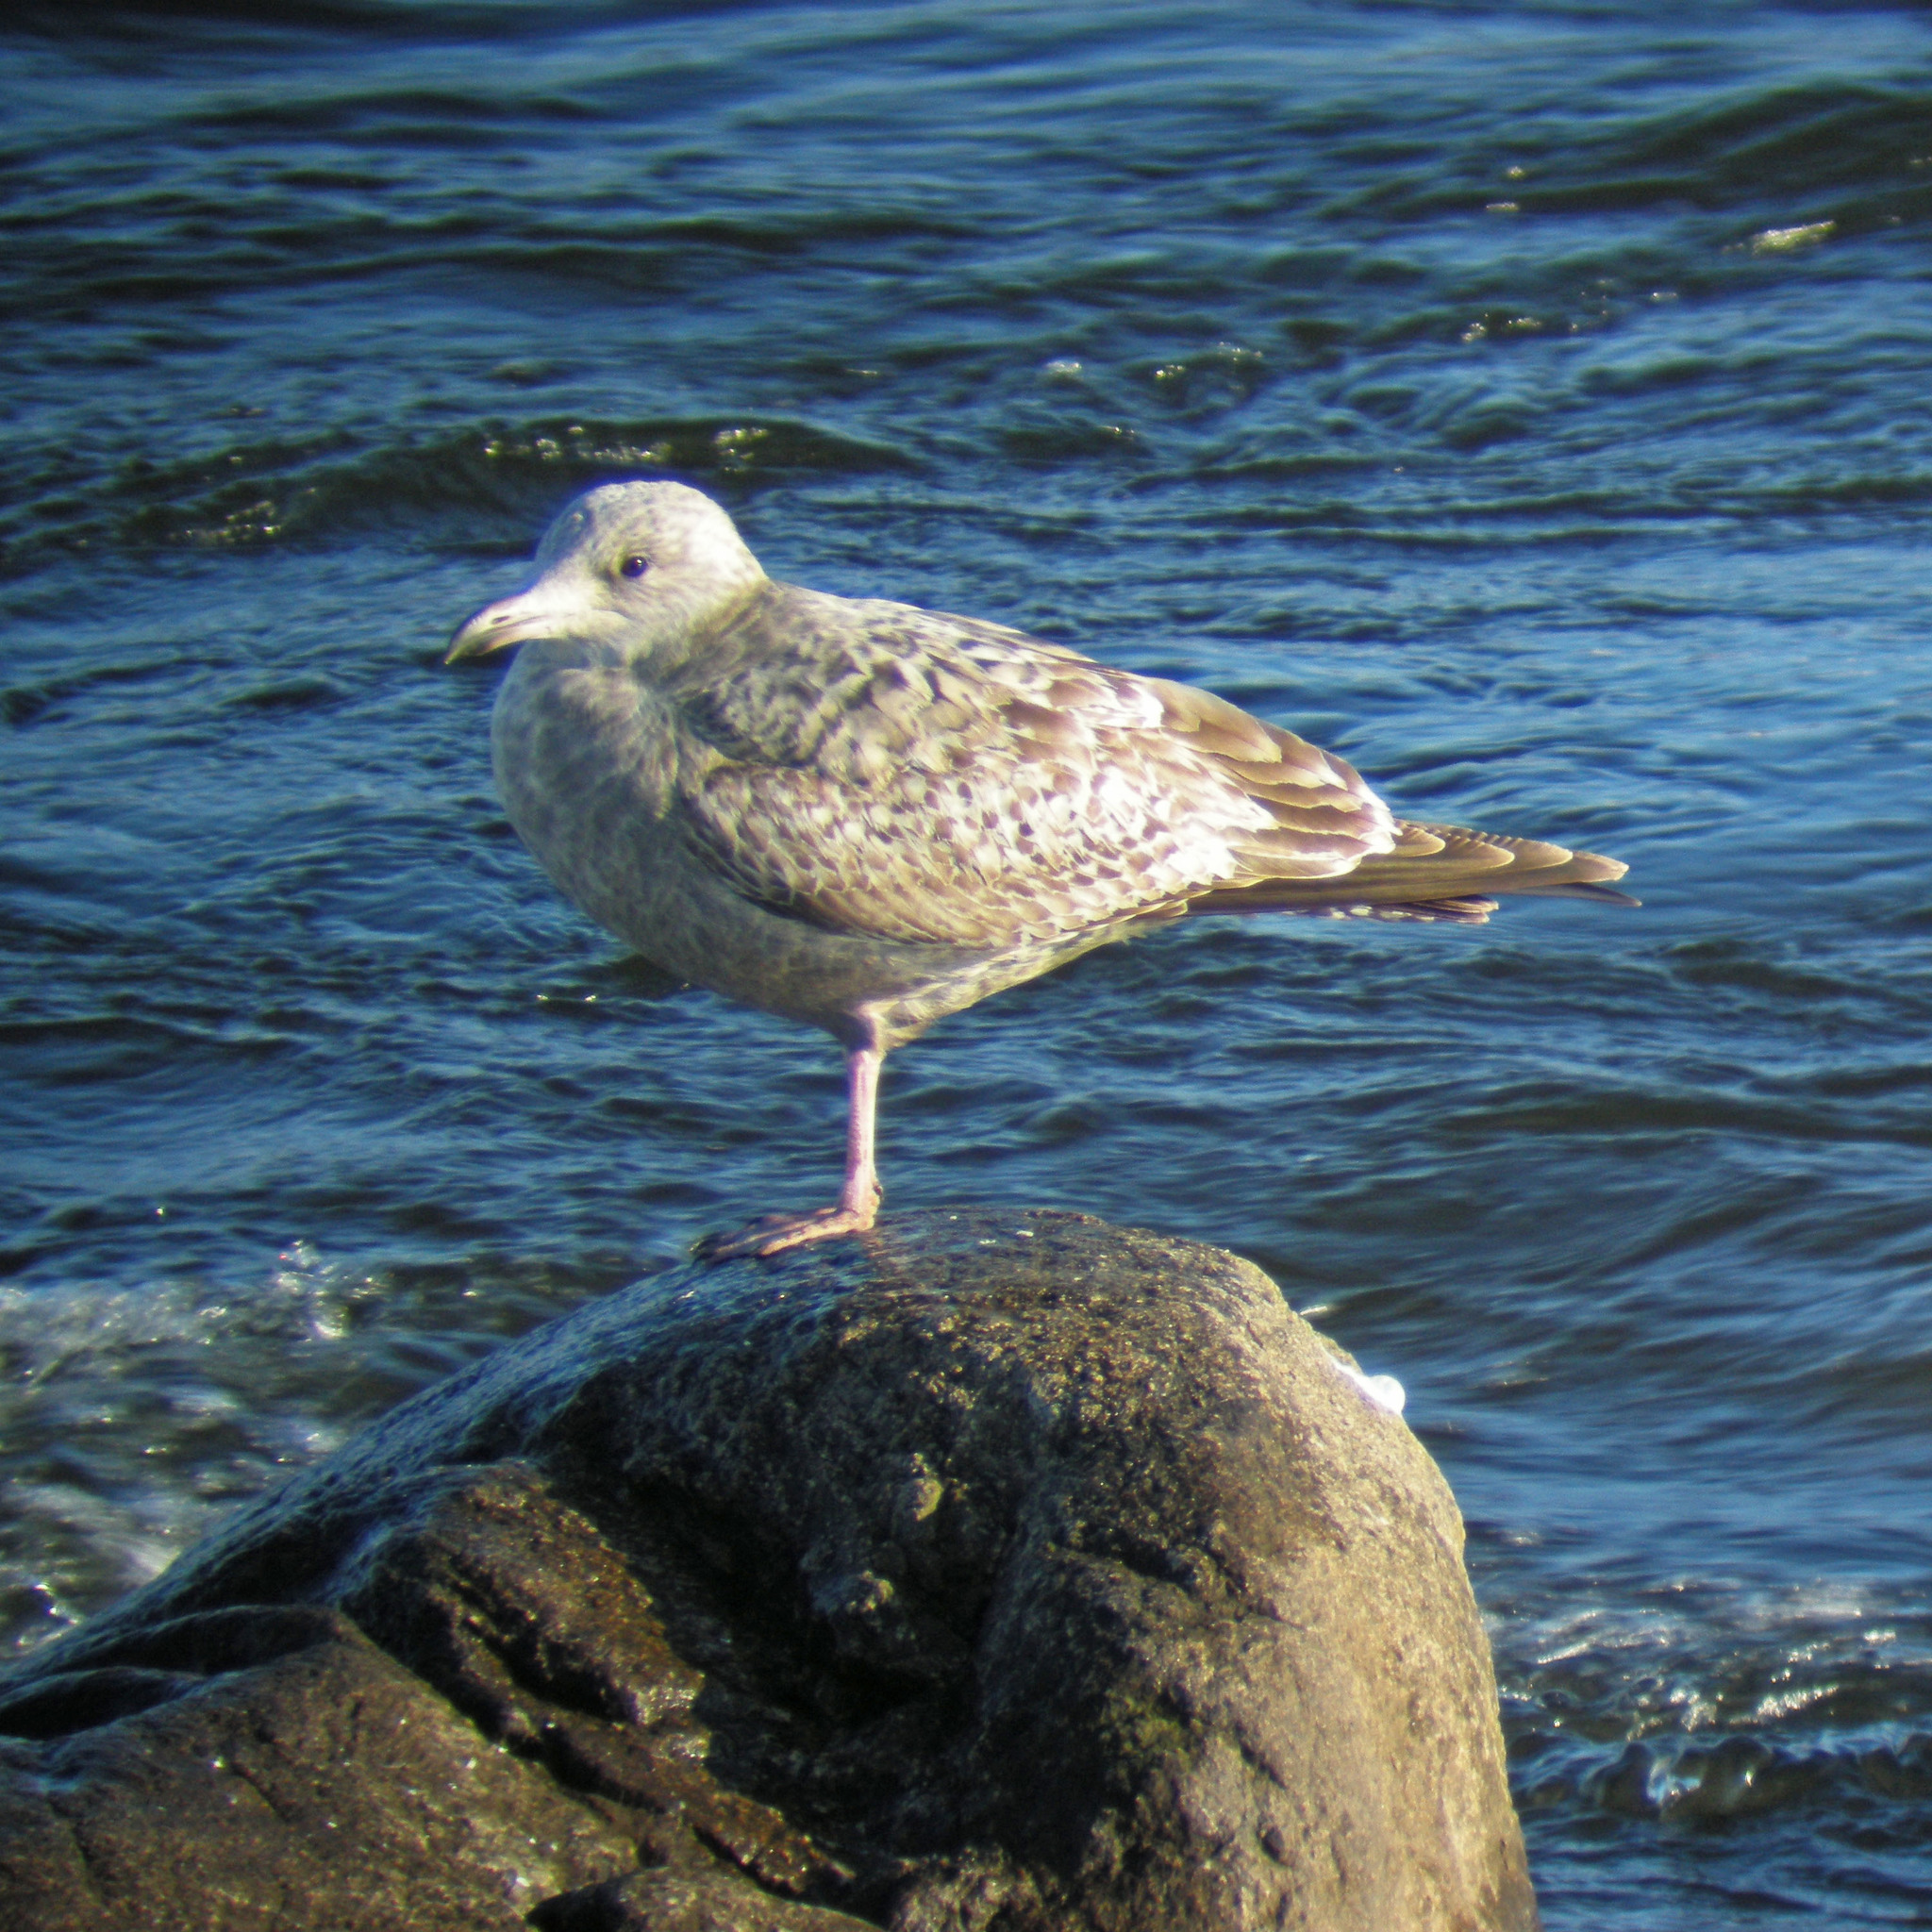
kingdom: Animalia
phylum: Chordata
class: Aves
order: Charadriiformes
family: Laridae
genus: Larus
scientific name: Larus argentatus
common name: Herring gull
